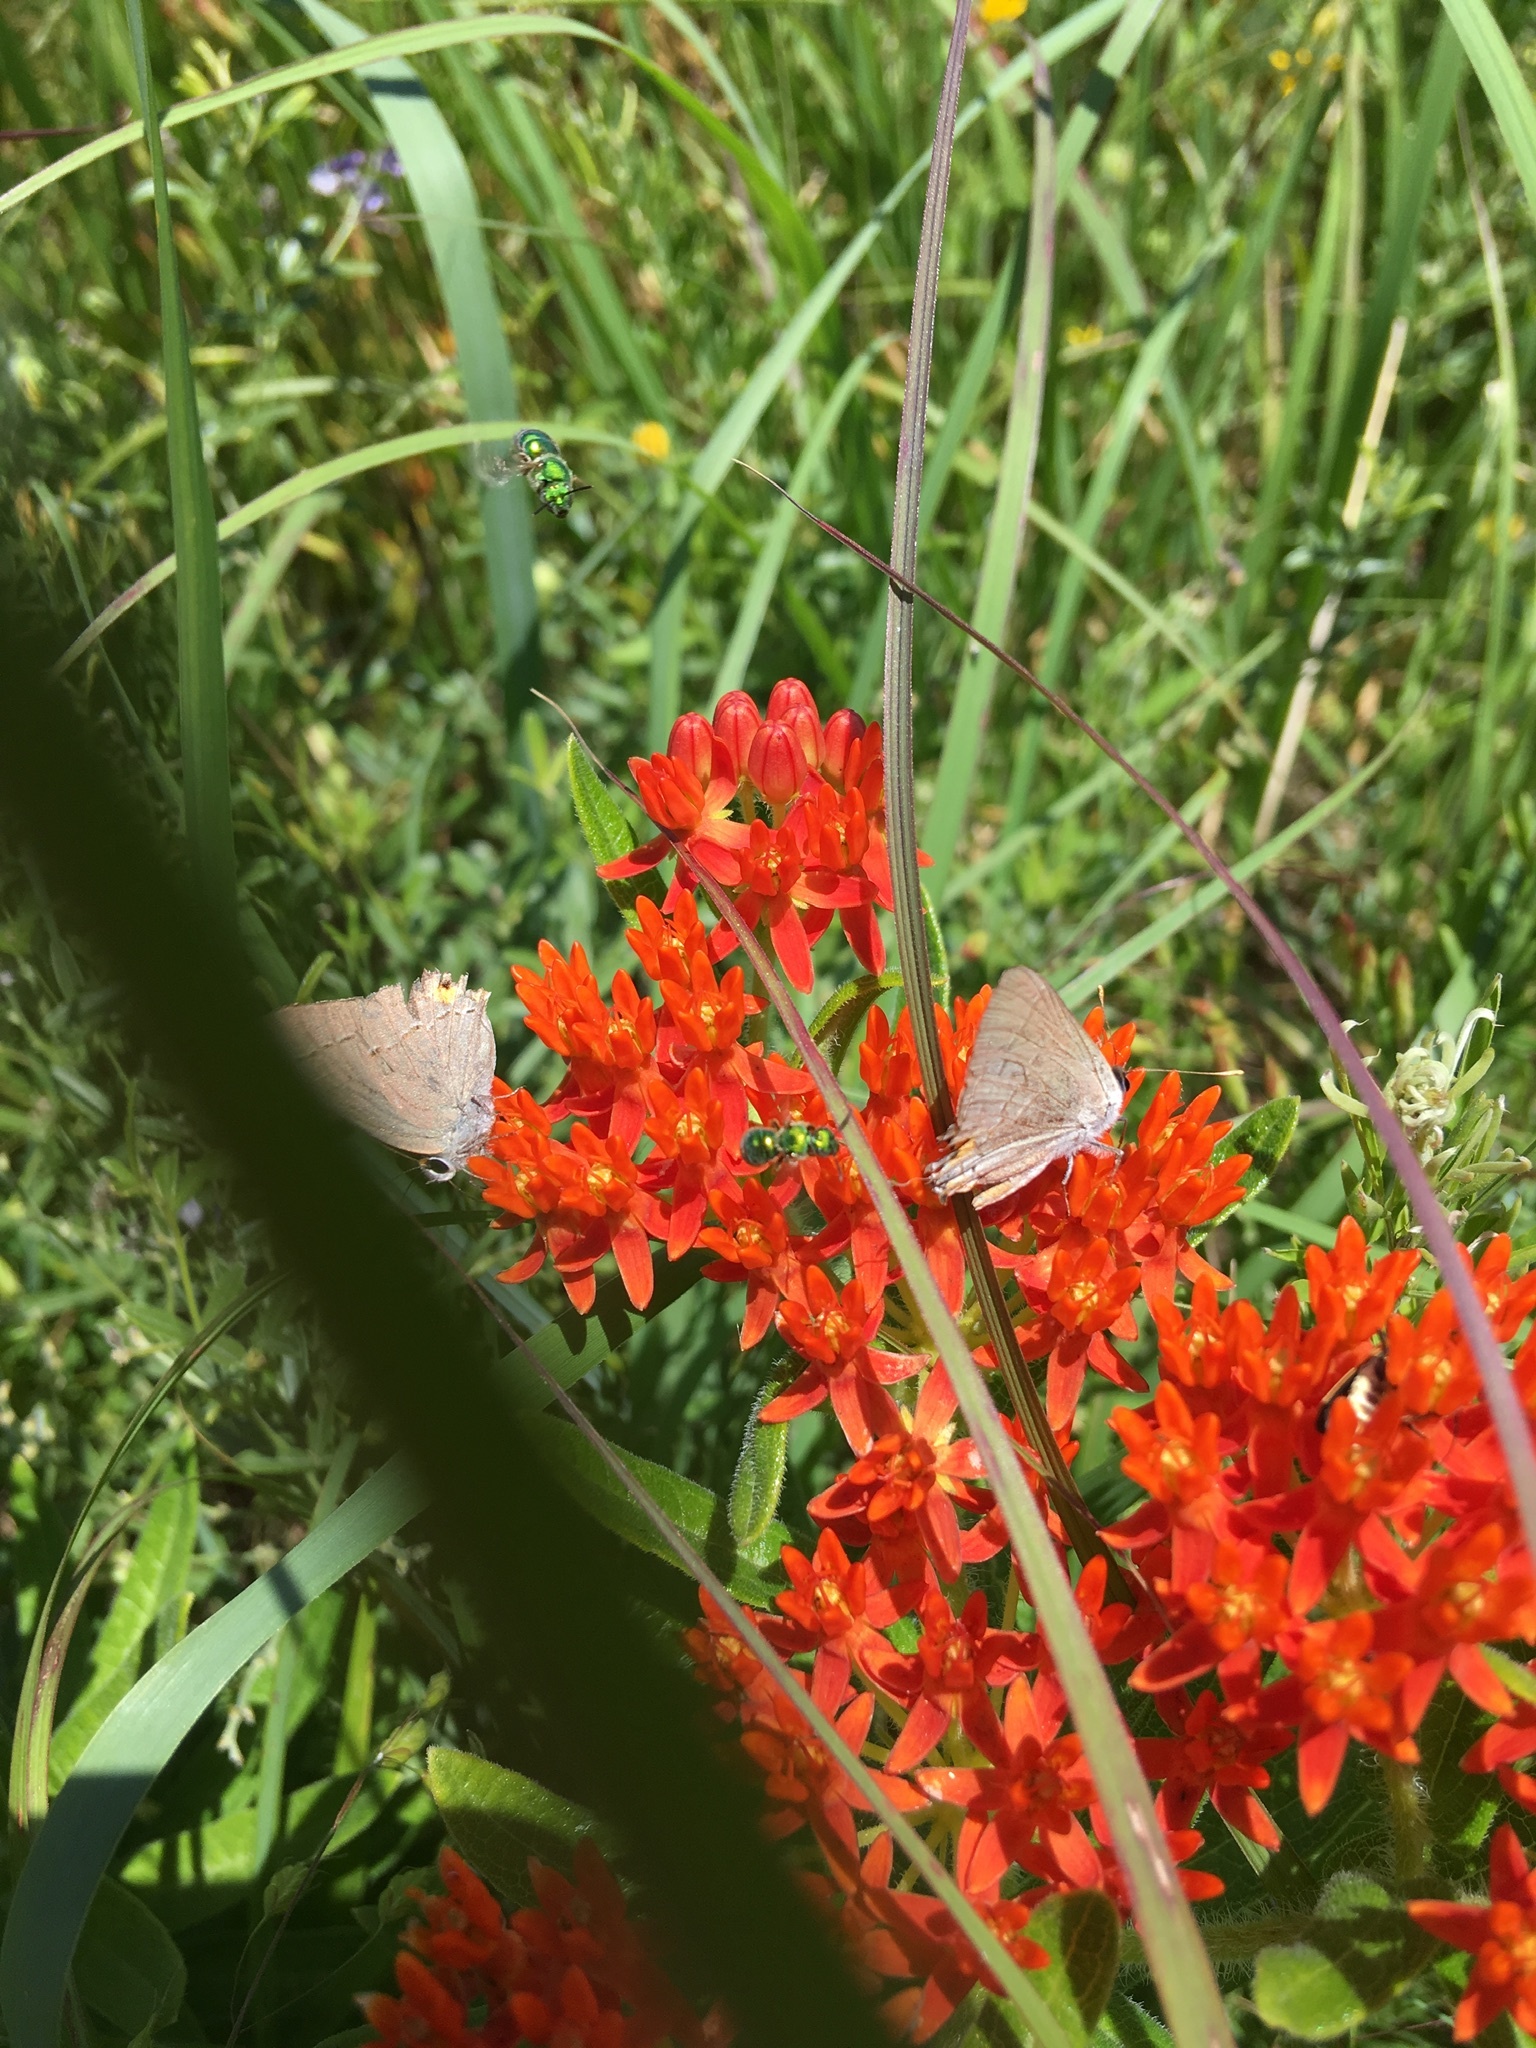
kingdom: Animalia
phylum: Arthropoda
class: Insecta
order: Lepidoptera
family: Lycaenidae
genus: Strymon
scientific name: Strymon melinus
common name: Gray hairstreak
